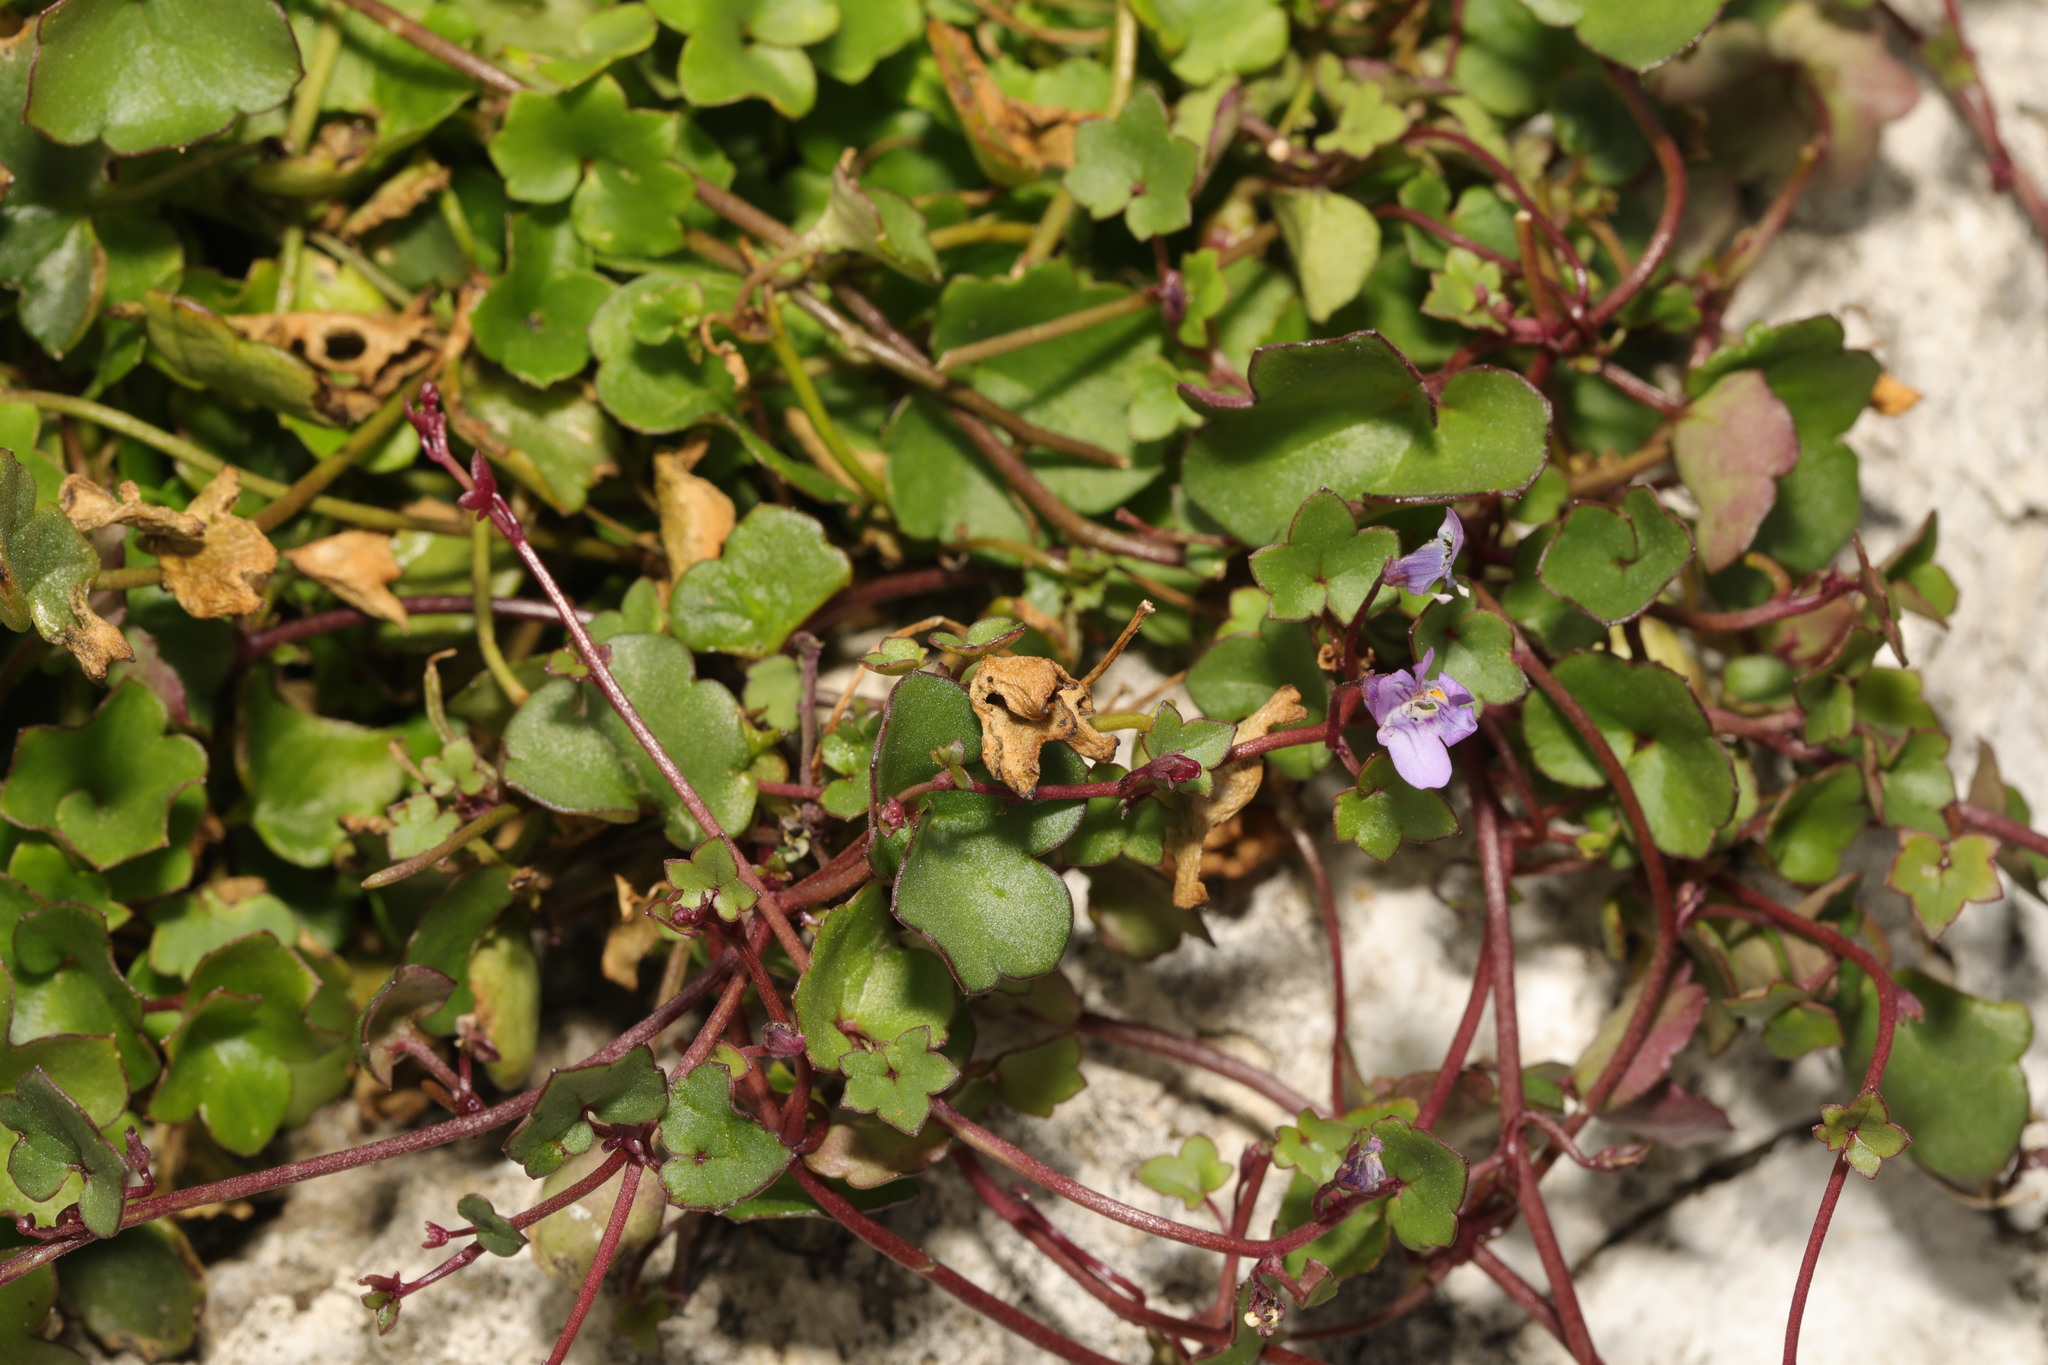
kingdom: Plantae
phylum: Tracheophyta
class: Magnoliopsida
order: Lamiales
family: Plantaginaceae
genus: Cymbalaria
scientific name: Cymbalaria muralis
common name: Ivy-leaved toadflax
